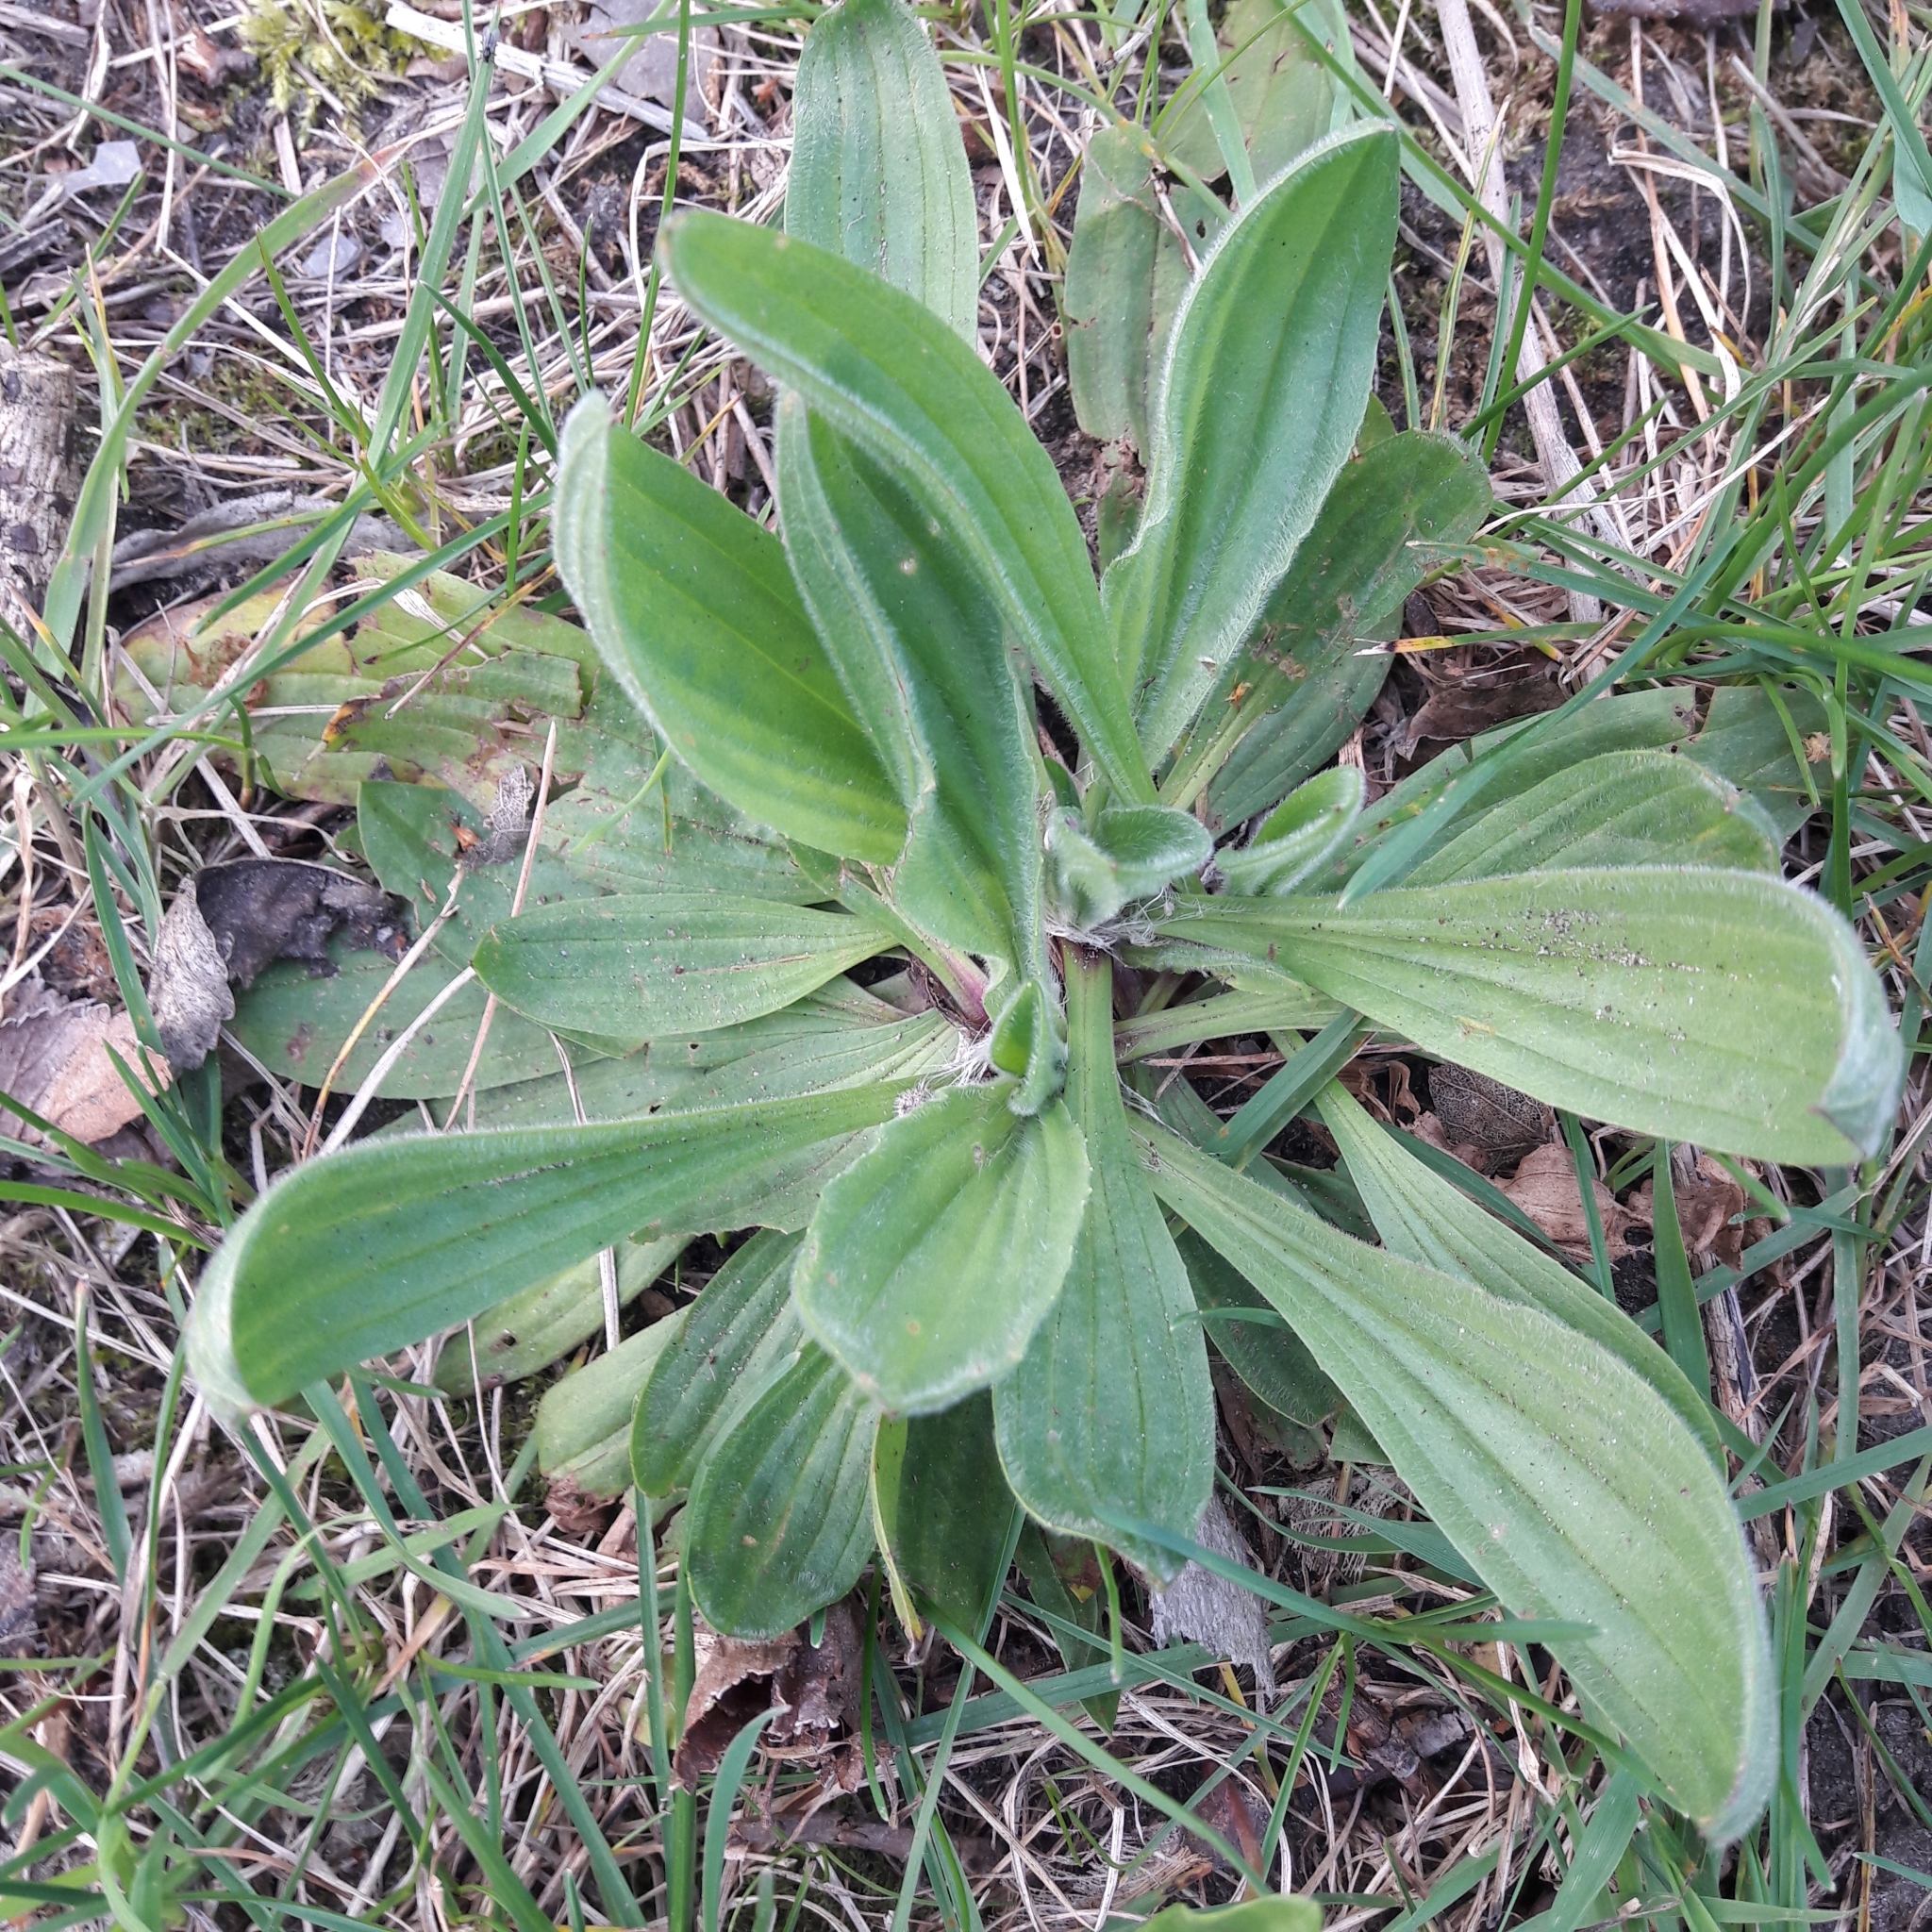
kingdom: Plantae
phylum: Tracheophyta
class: Magnoliopsida
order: Lamiales
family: Plantaginaceae
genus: Plantago
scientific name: Plantago lanceolata
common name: Ribwort plantain
